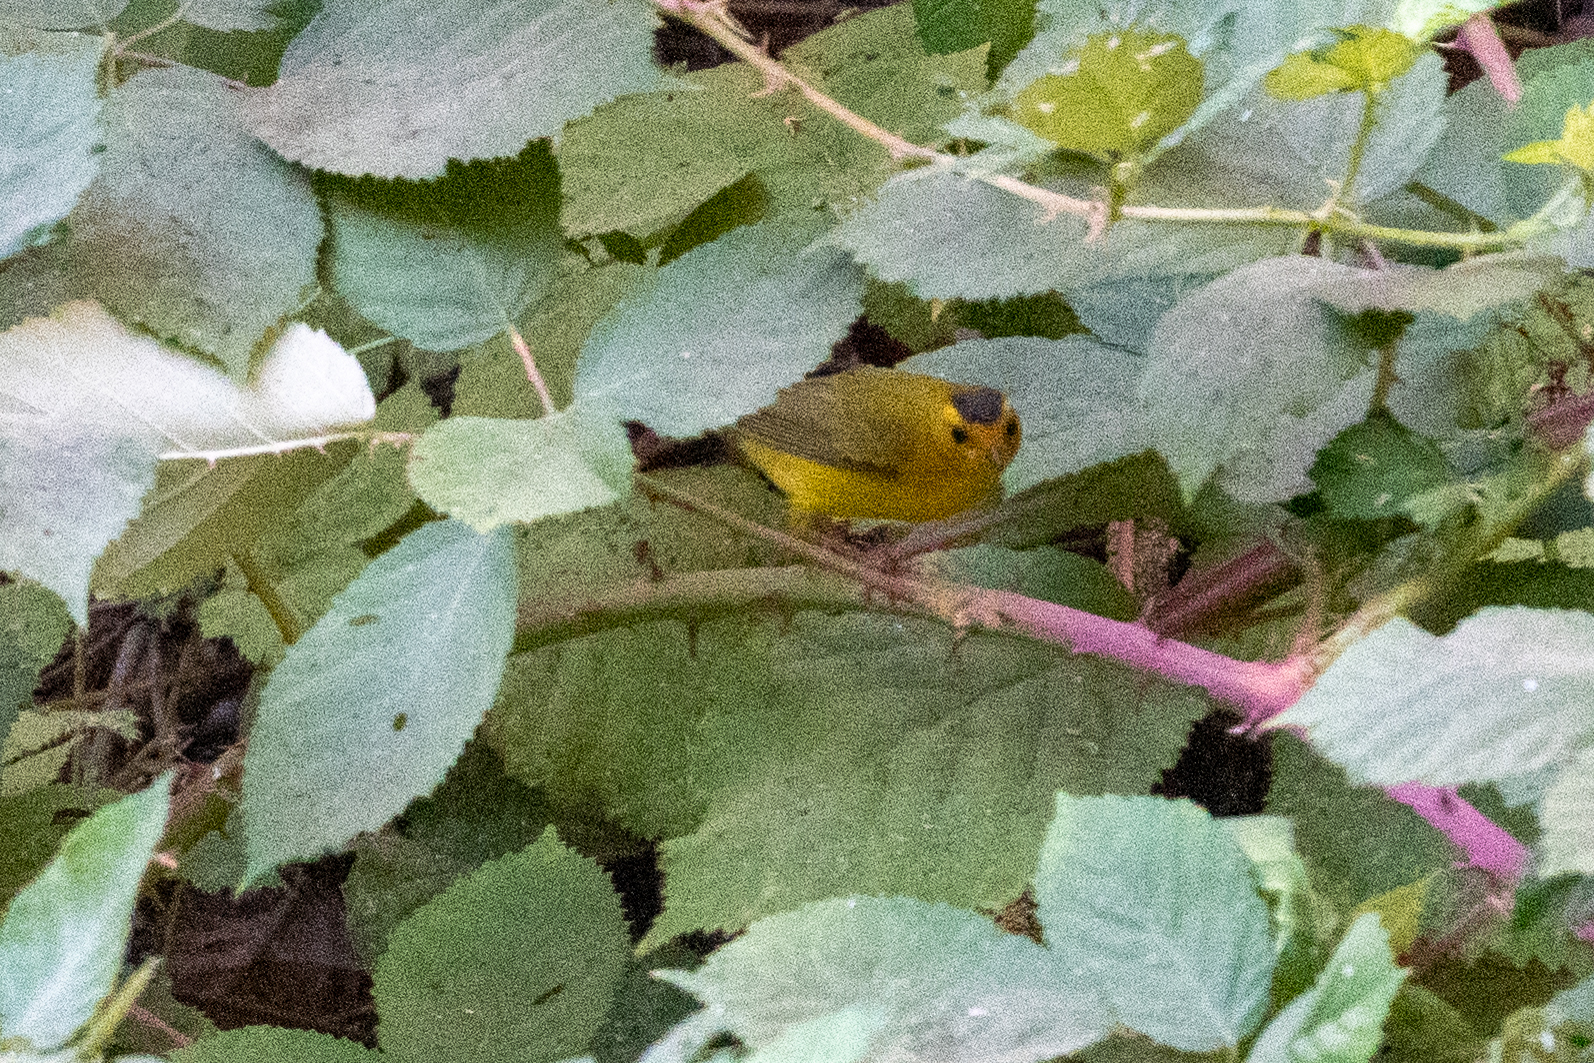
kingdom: Animalia
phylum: Chordata
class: Aves
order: Passeriformes
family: Parulidae
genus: Cardellina
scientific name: Cardellina pusilla
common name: Wilson's warbler
